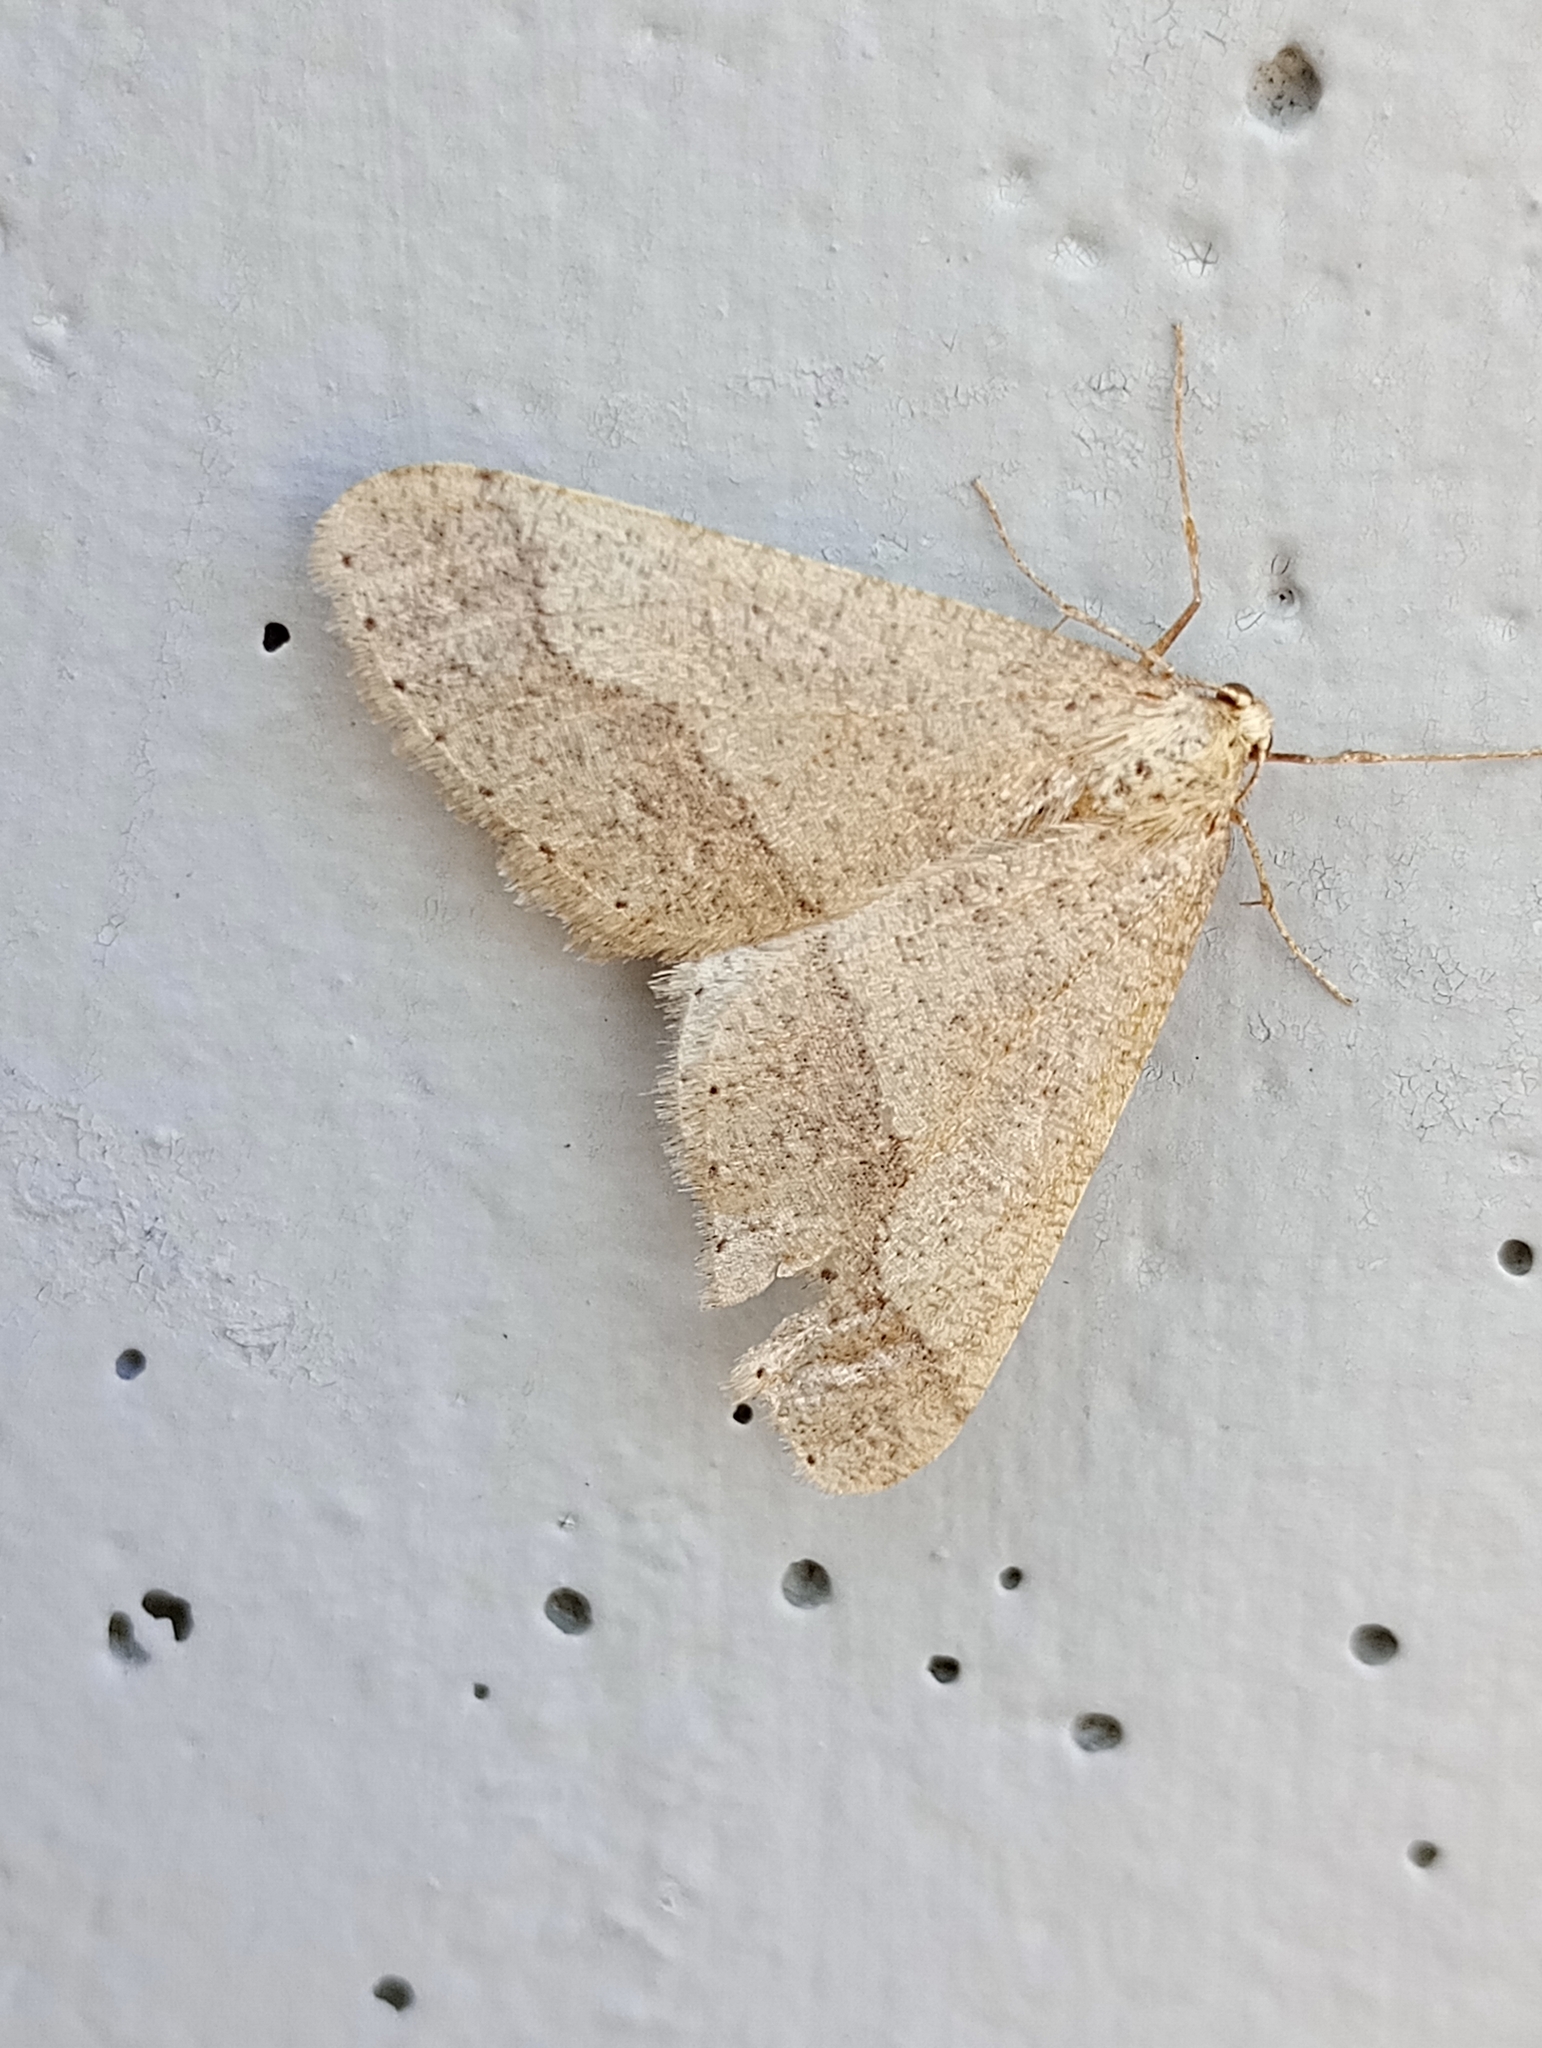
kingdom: Animalia
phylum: Arthropoda
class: Insecta
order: Lepidoptera
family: Geometridae
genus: Agriopis
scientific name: Agriopis marginaria
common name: Dotted border
